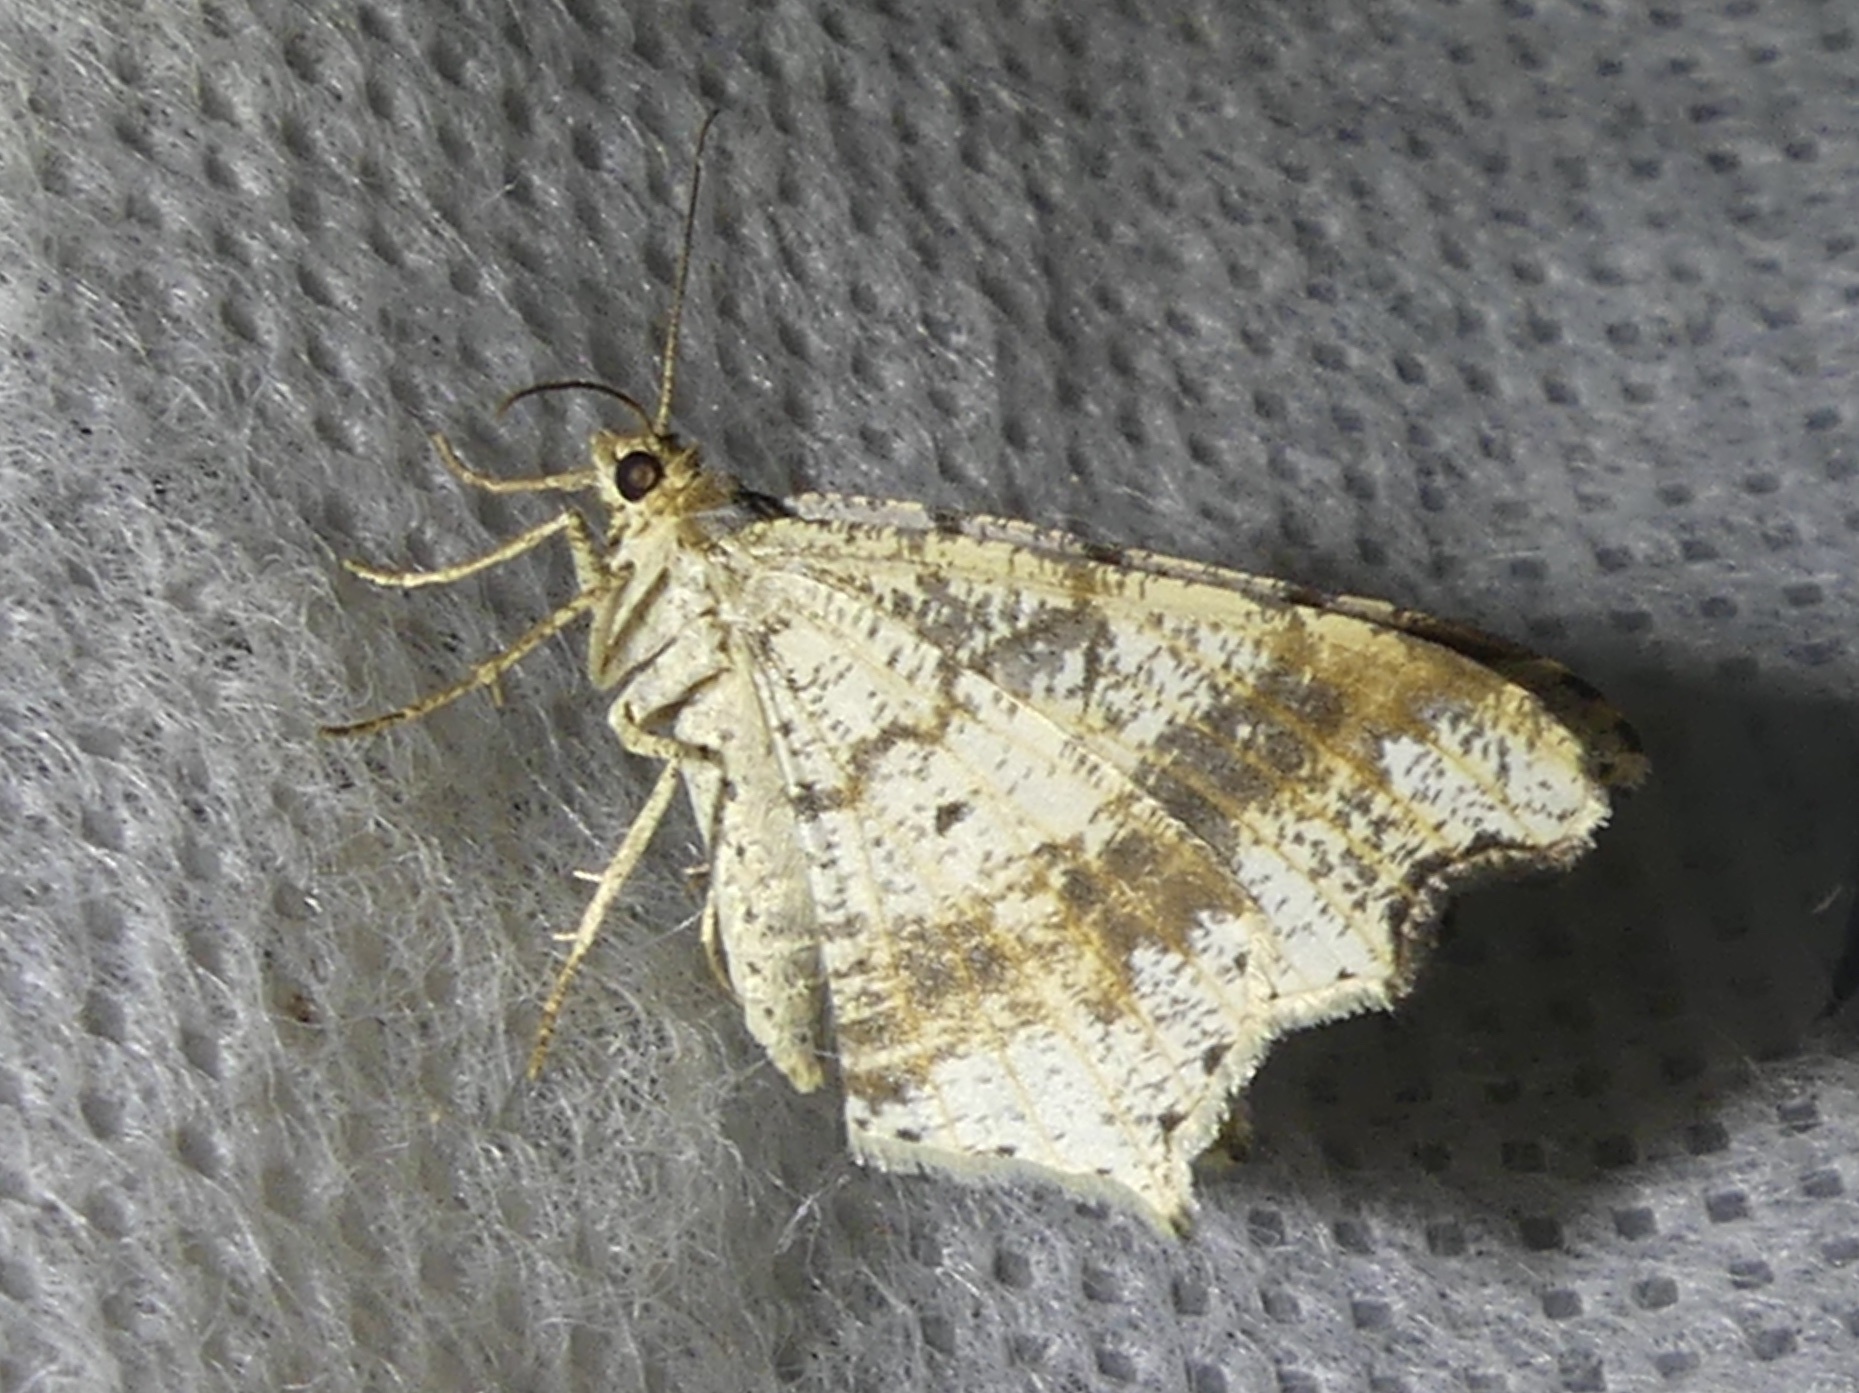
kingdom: Animalia
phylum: Arthropoda
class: Insecta
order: Lepidoptera
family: Geometridae
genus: Macaria
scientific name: Macaria alternata
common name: Sharp-angled peacock
